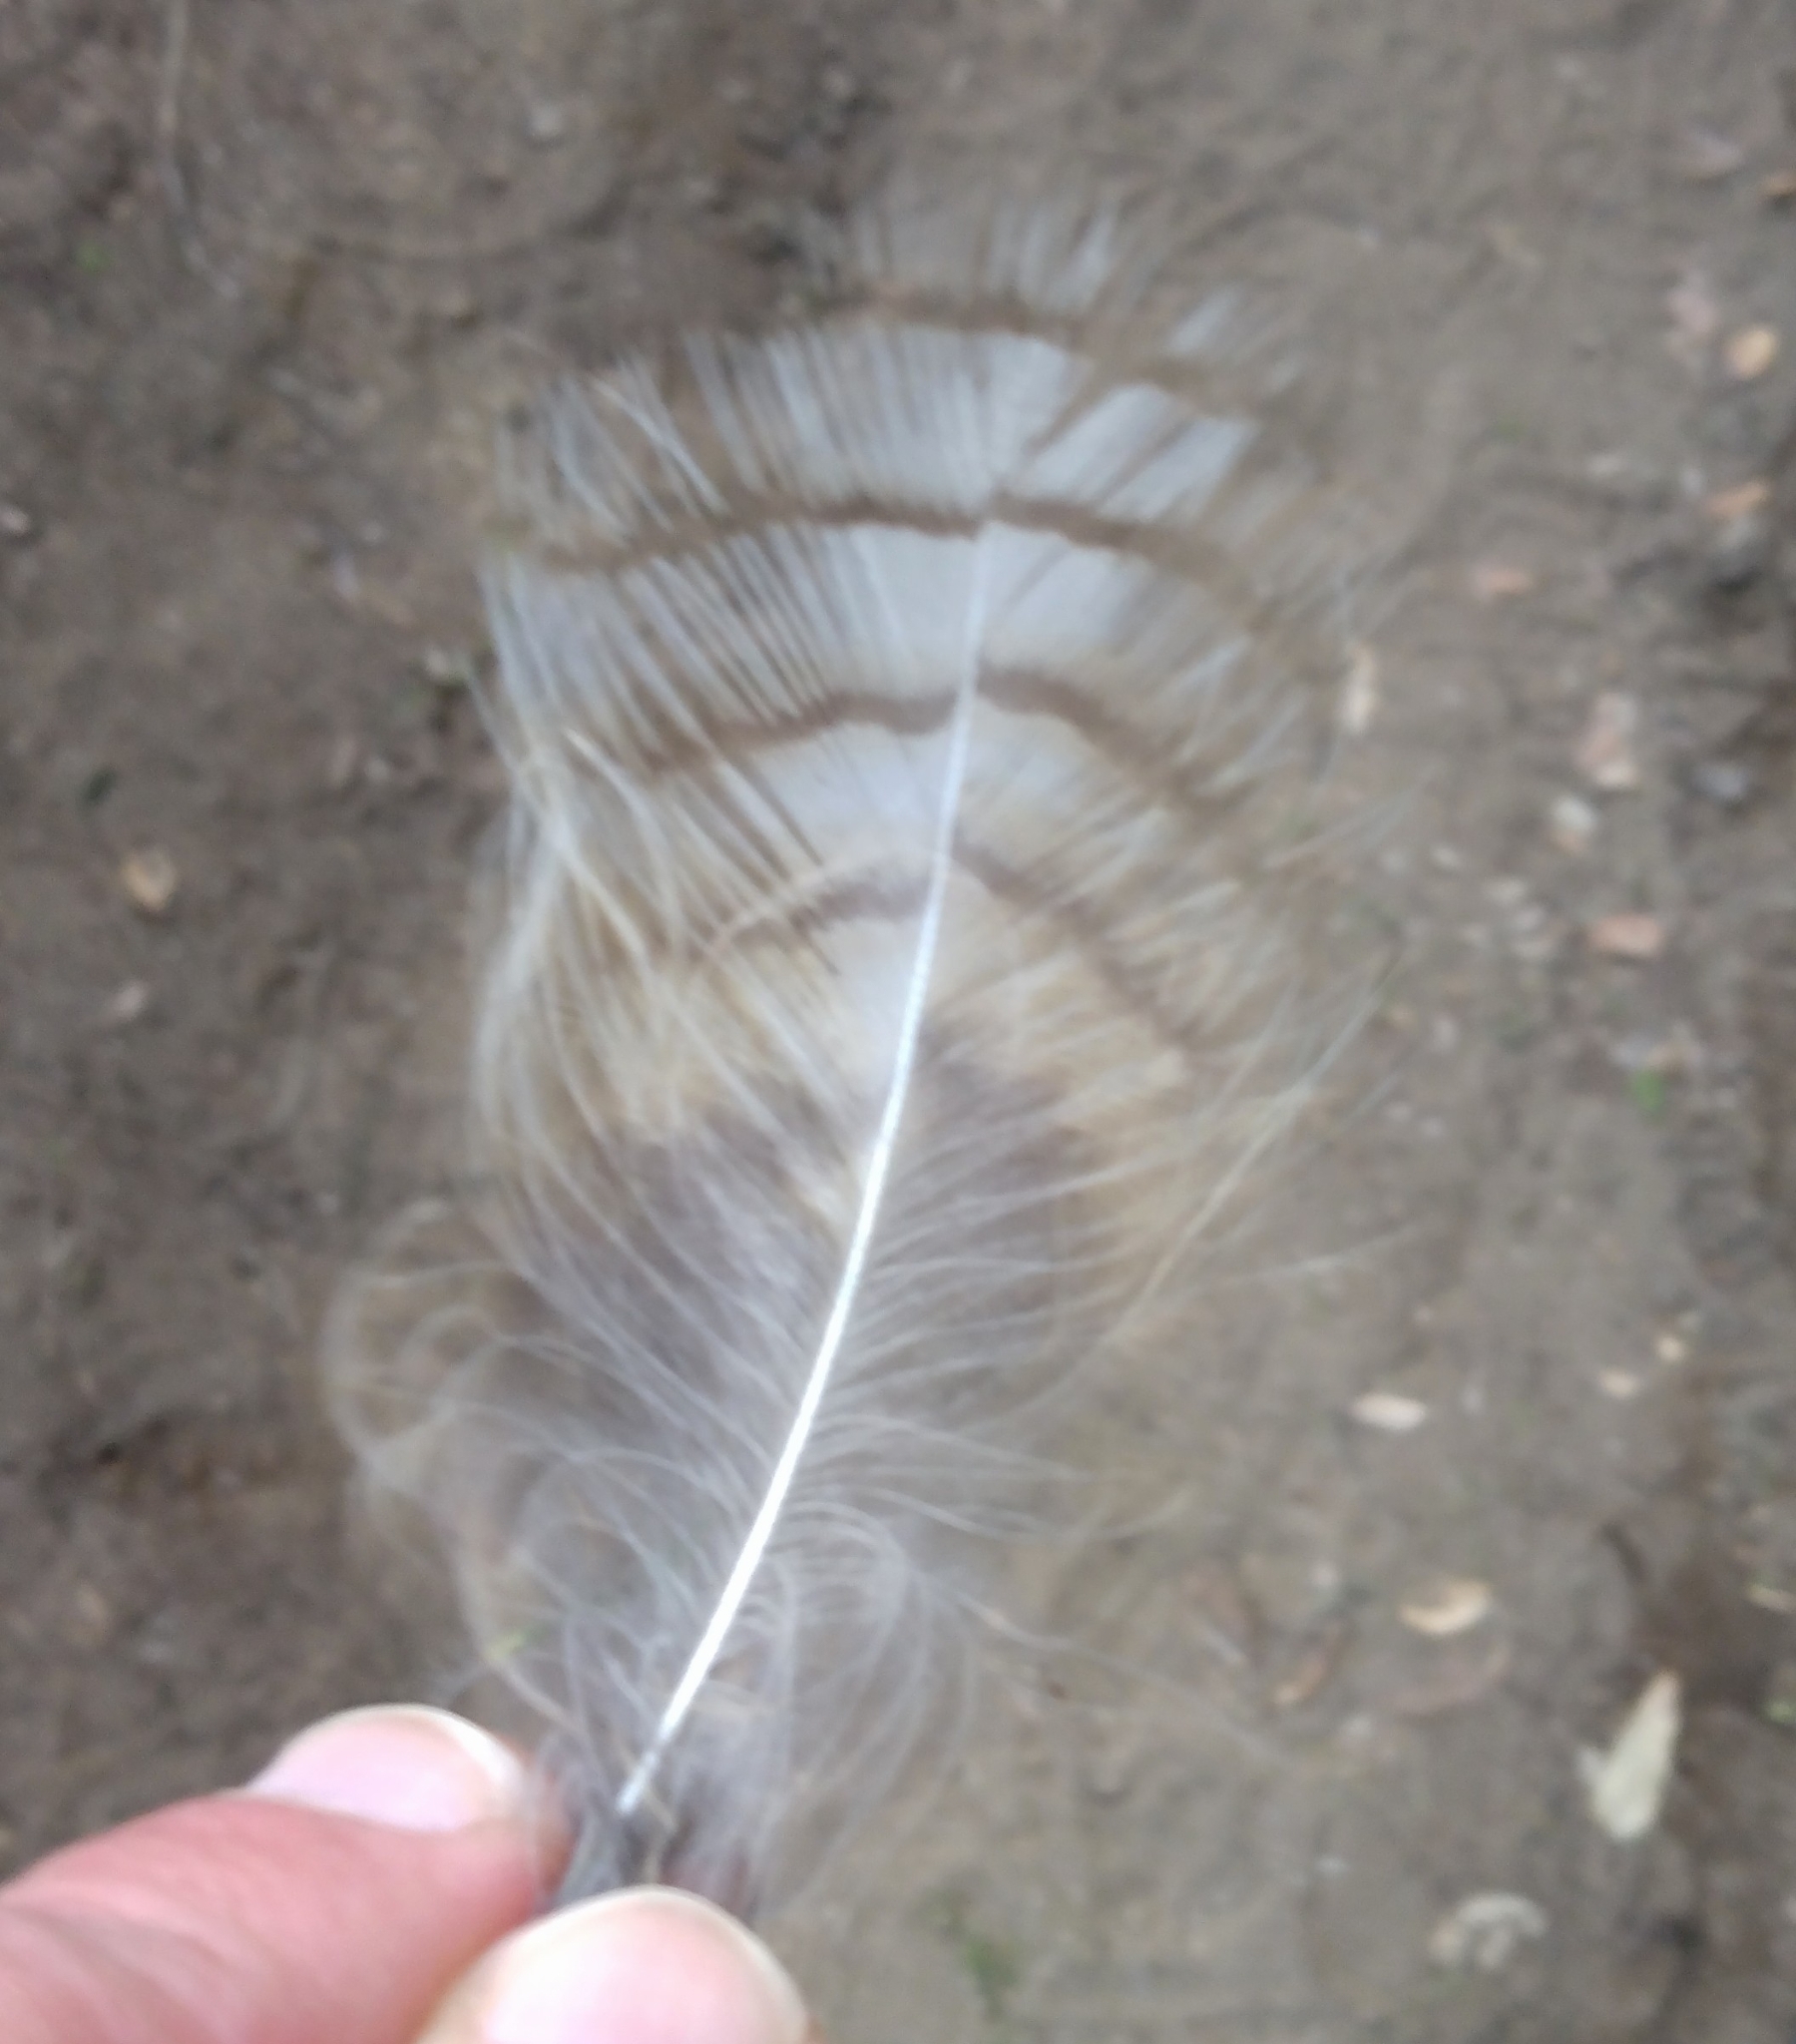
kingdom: Animalia
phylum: Chordata
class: Aves
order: Strigiformes
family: Strigidae
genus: Bubo
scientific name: Bubo virginianus
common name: Great horned owl
